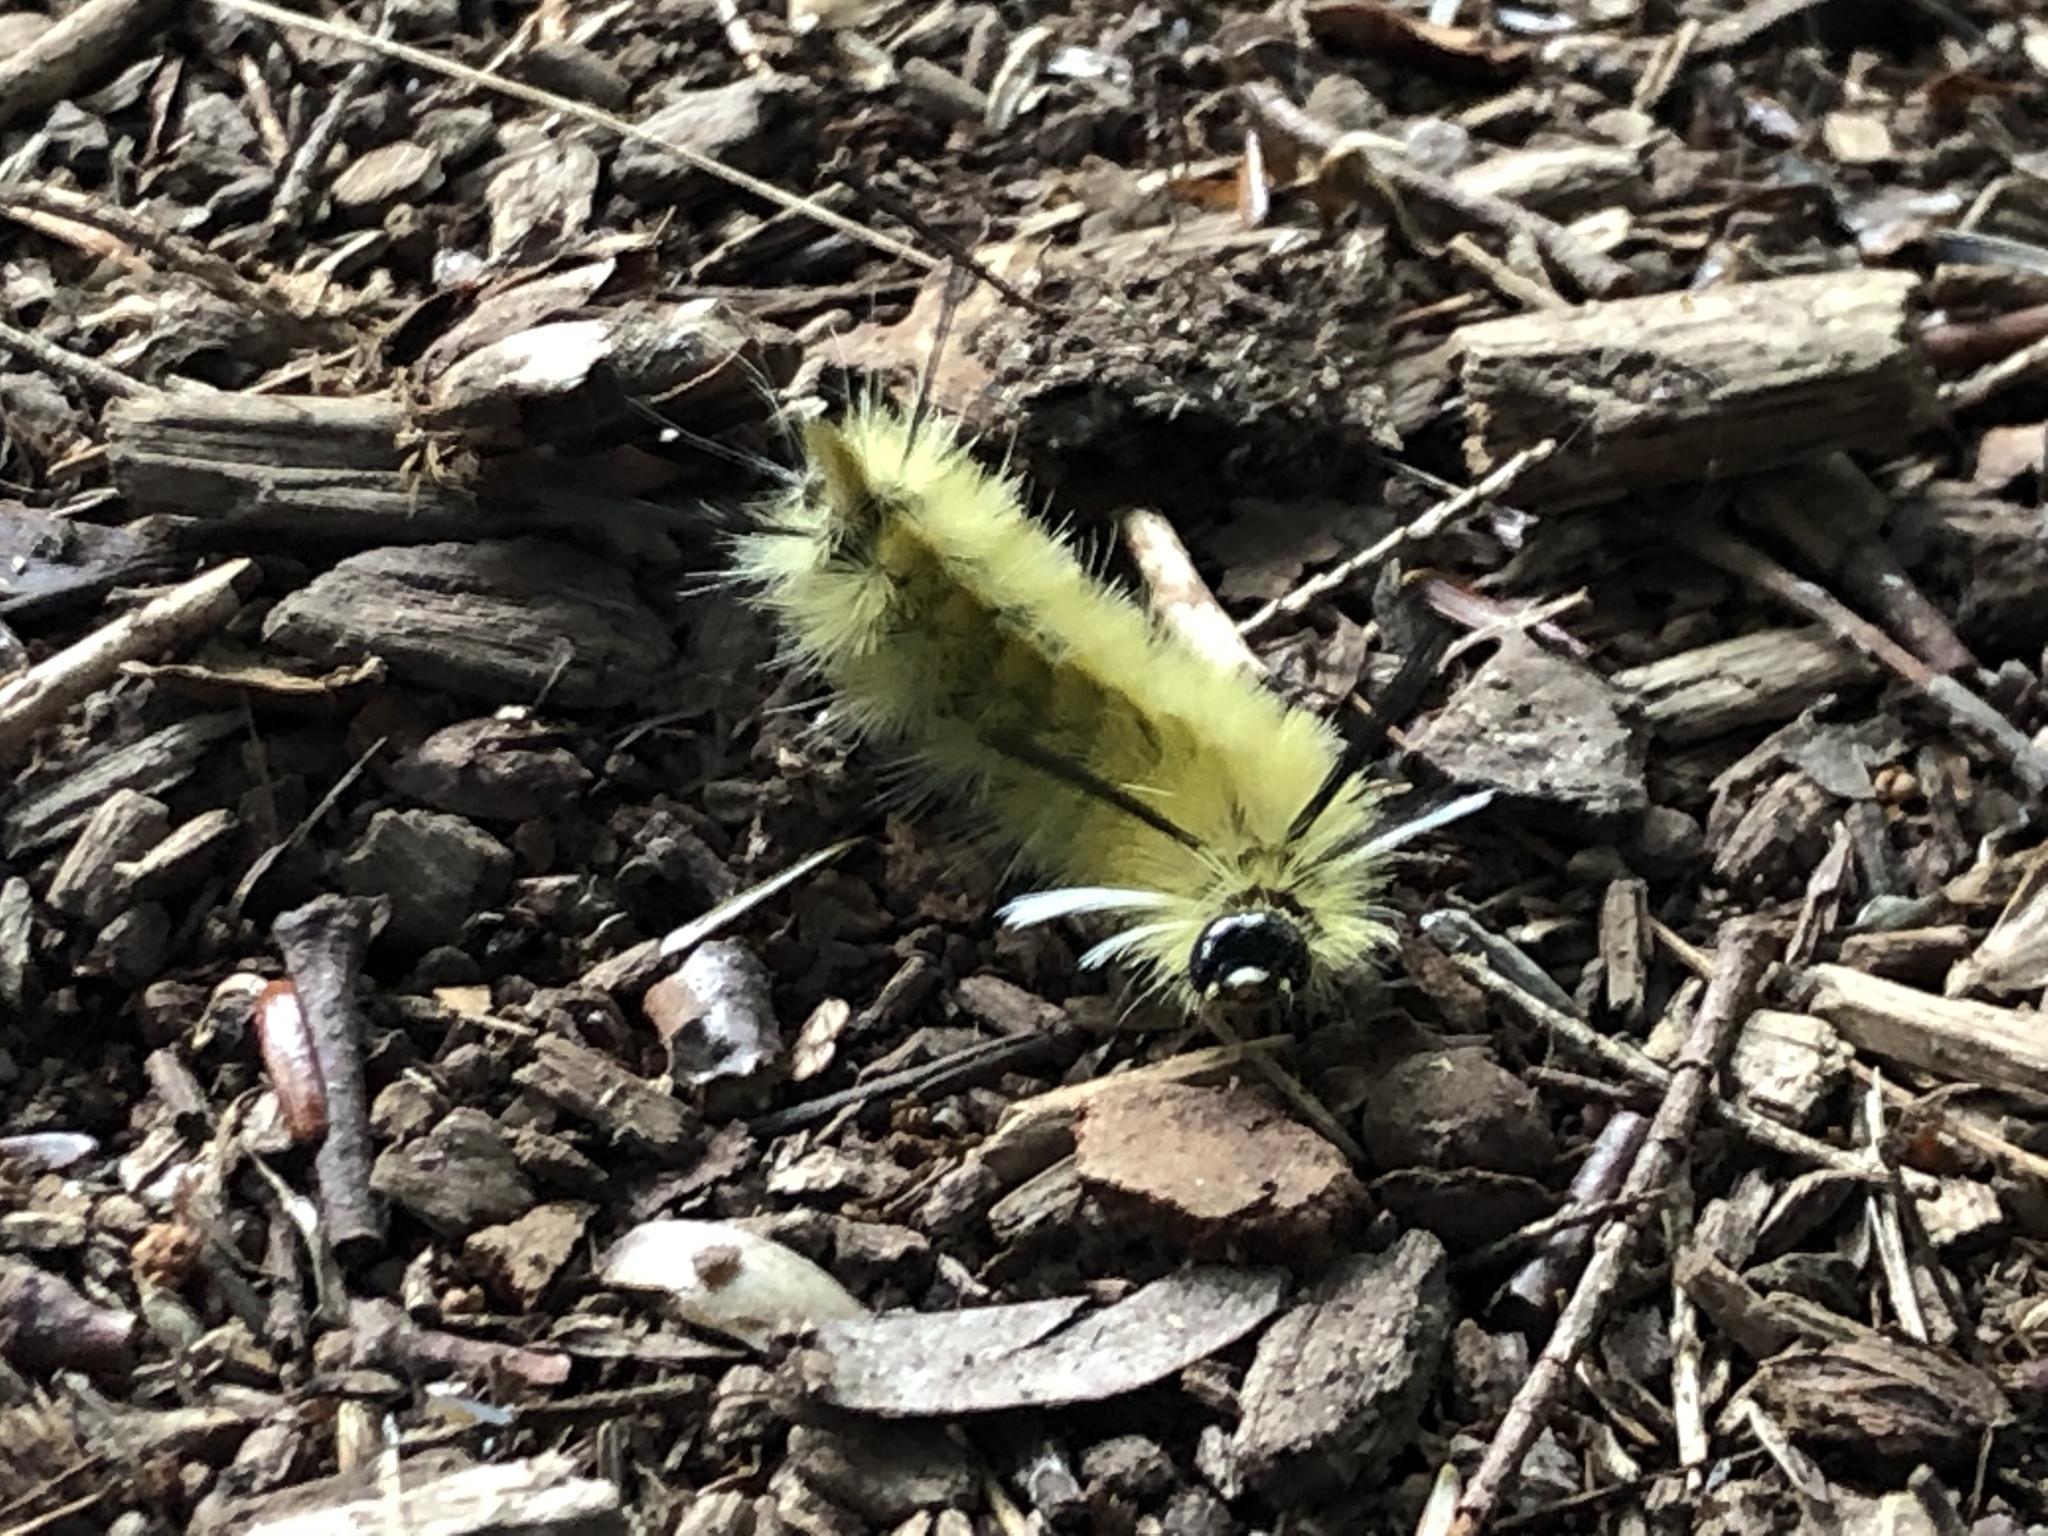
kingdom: Animalia
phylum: Arthropoda
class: Insecta
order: Lepidoptera
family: Erebidae
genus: Halysidota
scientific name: Halysidota tessellaris
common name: Banded tussock moth
